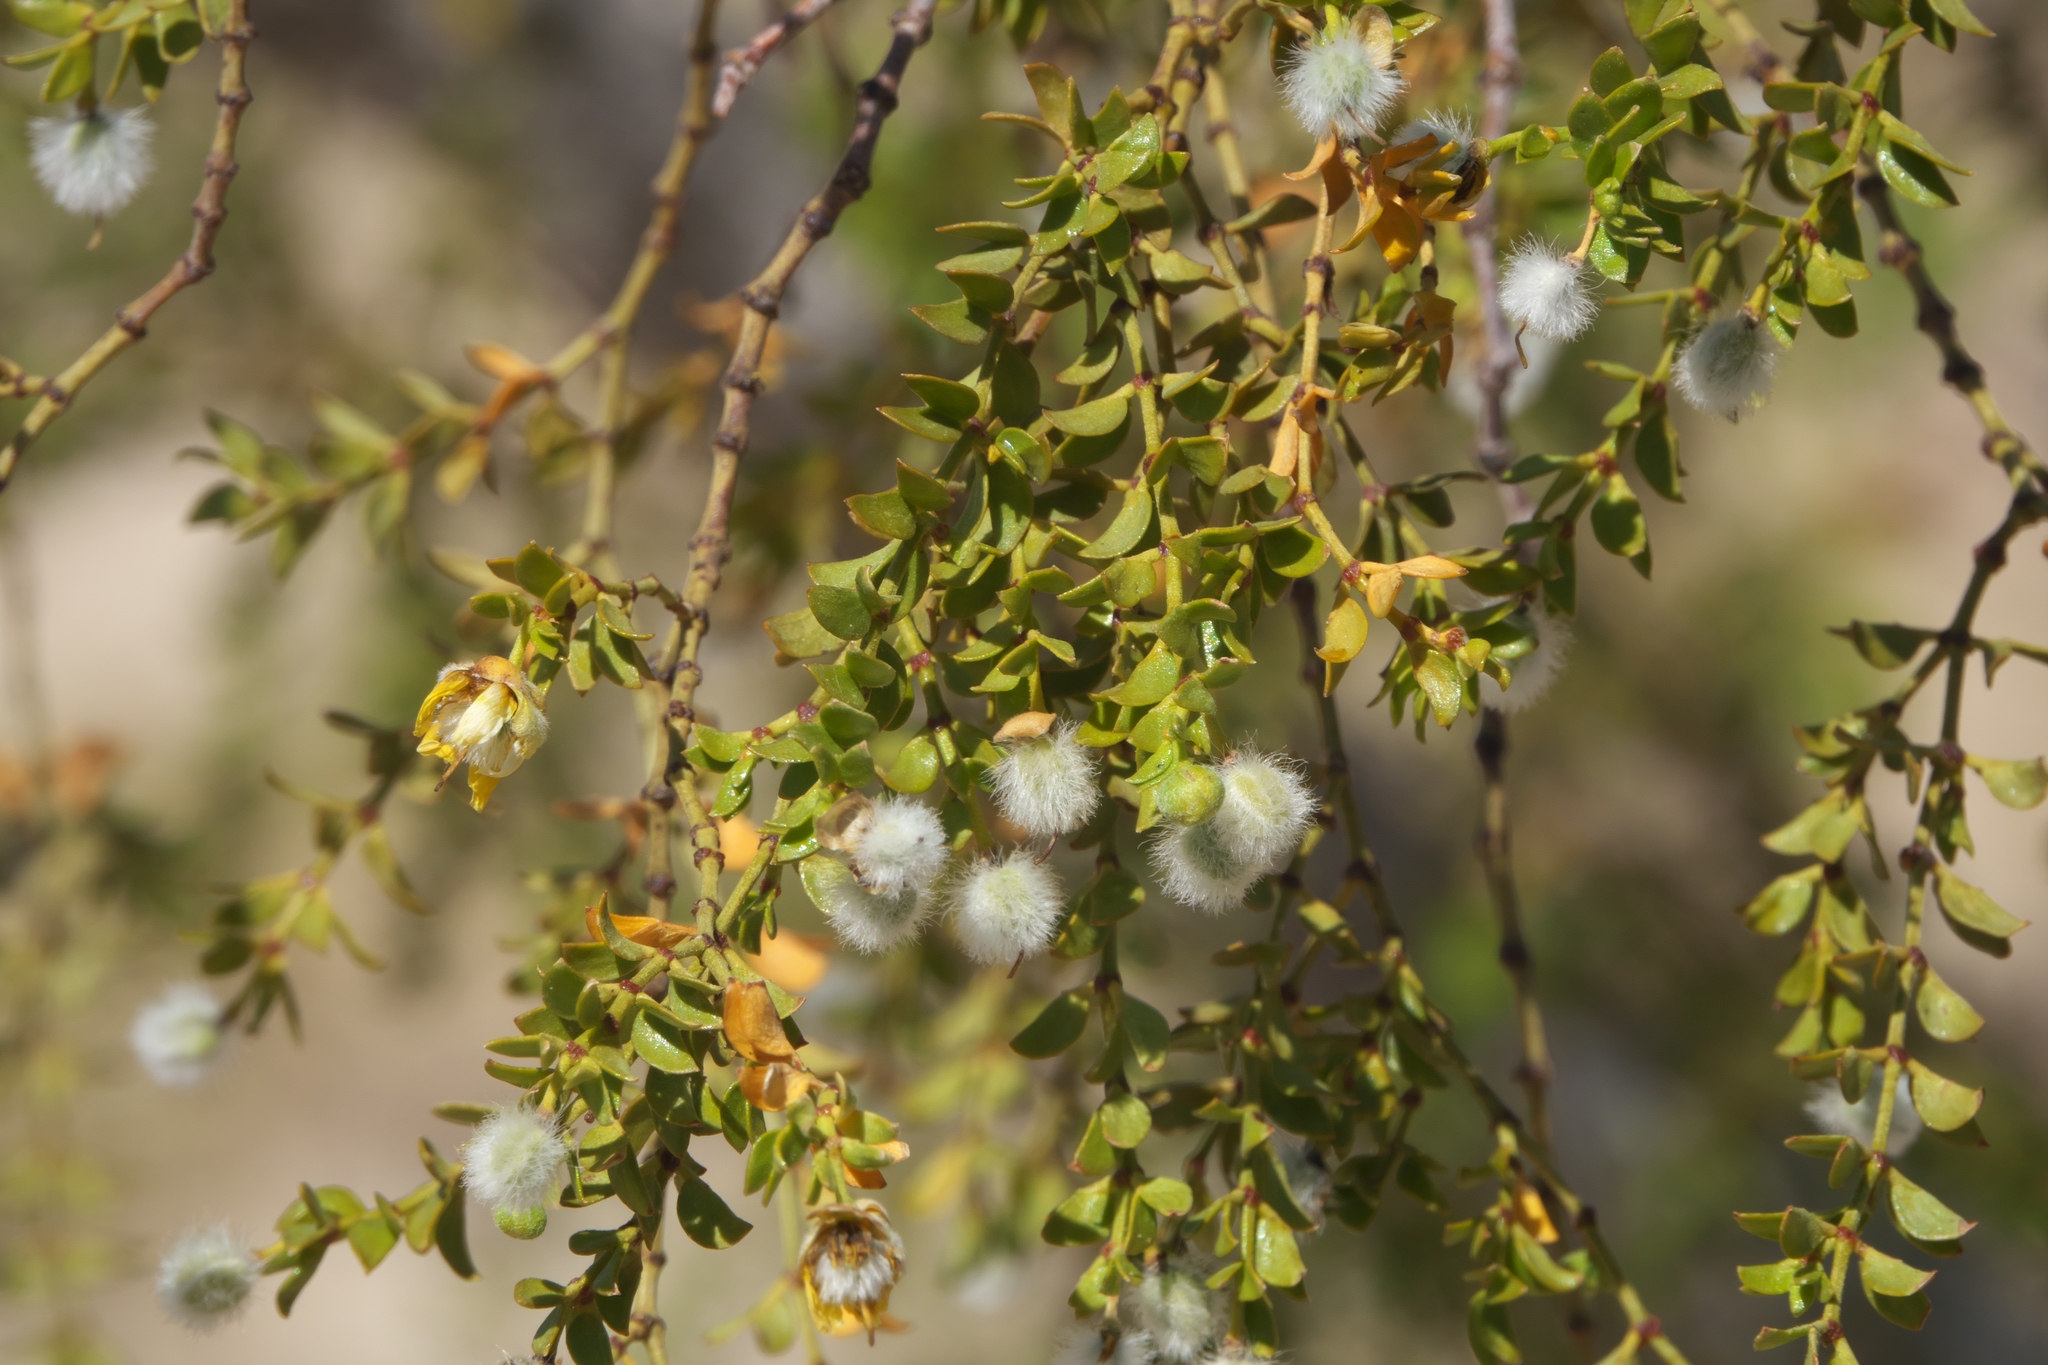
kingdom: Plantae
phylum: Tracheophyta
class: Magnoliopsida
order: Zygophyllales
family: Zygophyllaceae
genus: Larrea
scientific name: Larrea tridentata
